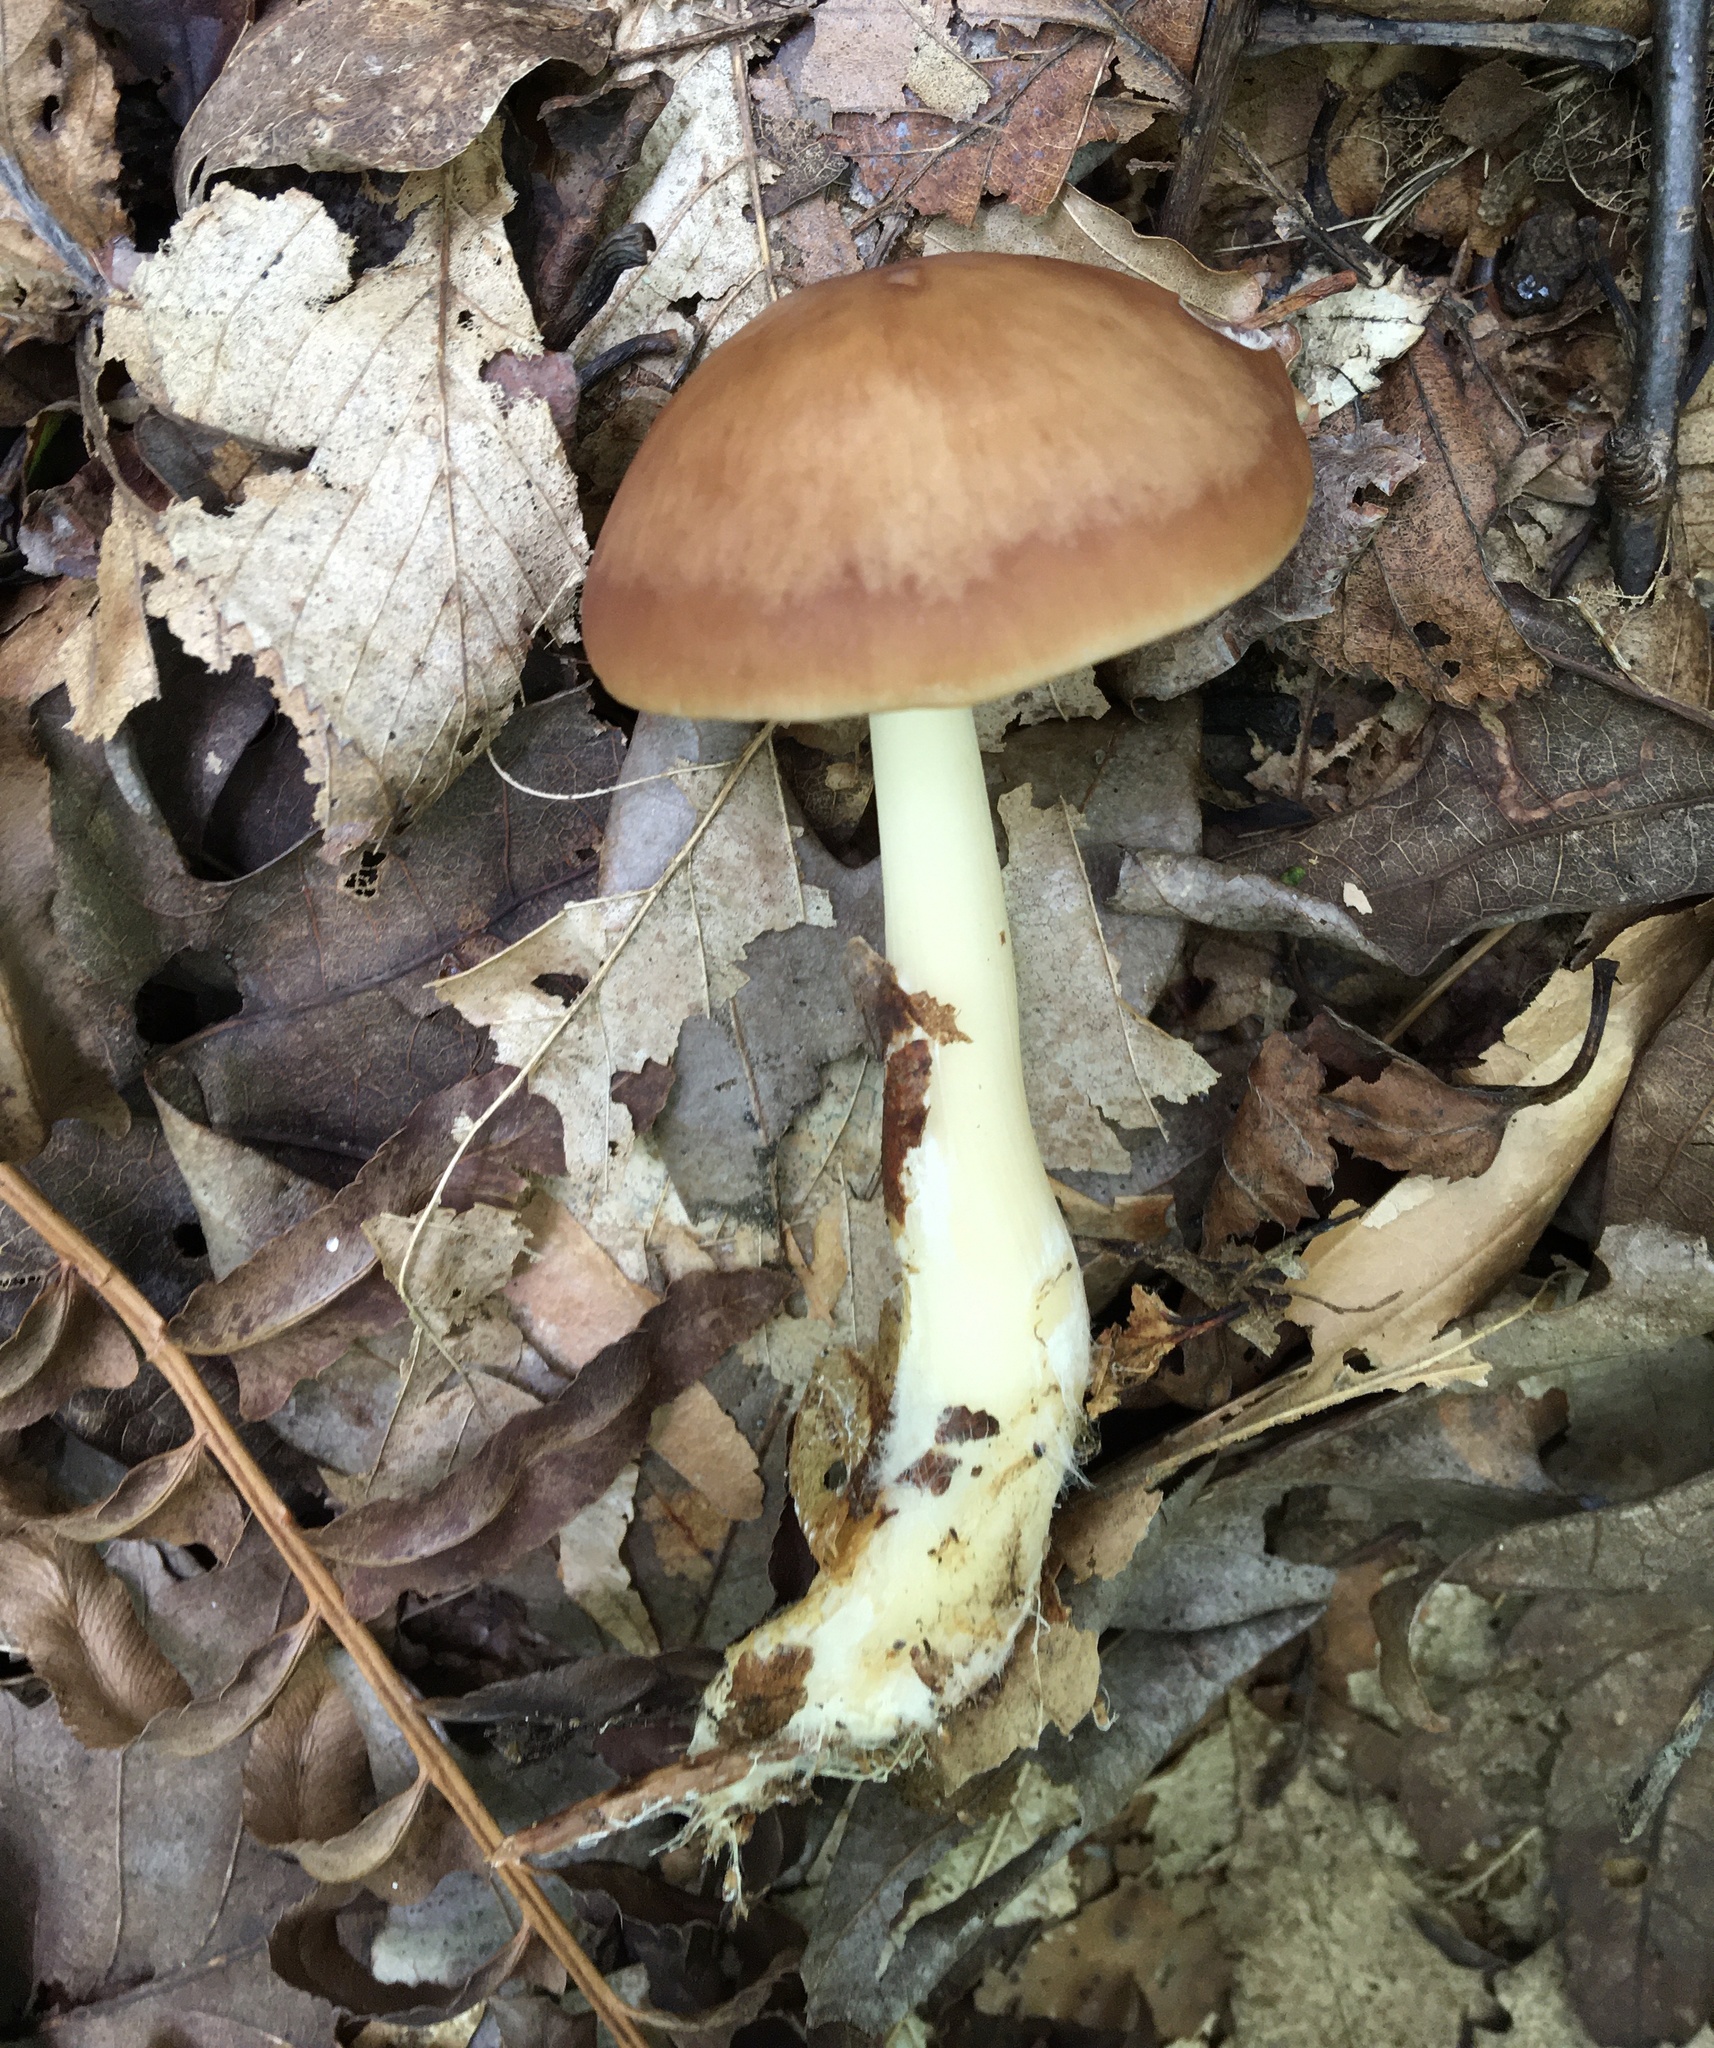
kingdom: Fungi
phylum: Basidiomycota
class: Agaricomycetes
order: Agaricales
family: Omphalotaceae
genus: Rhodocollybia
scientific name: Rhodocollybia butyracea
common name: Butter cap
